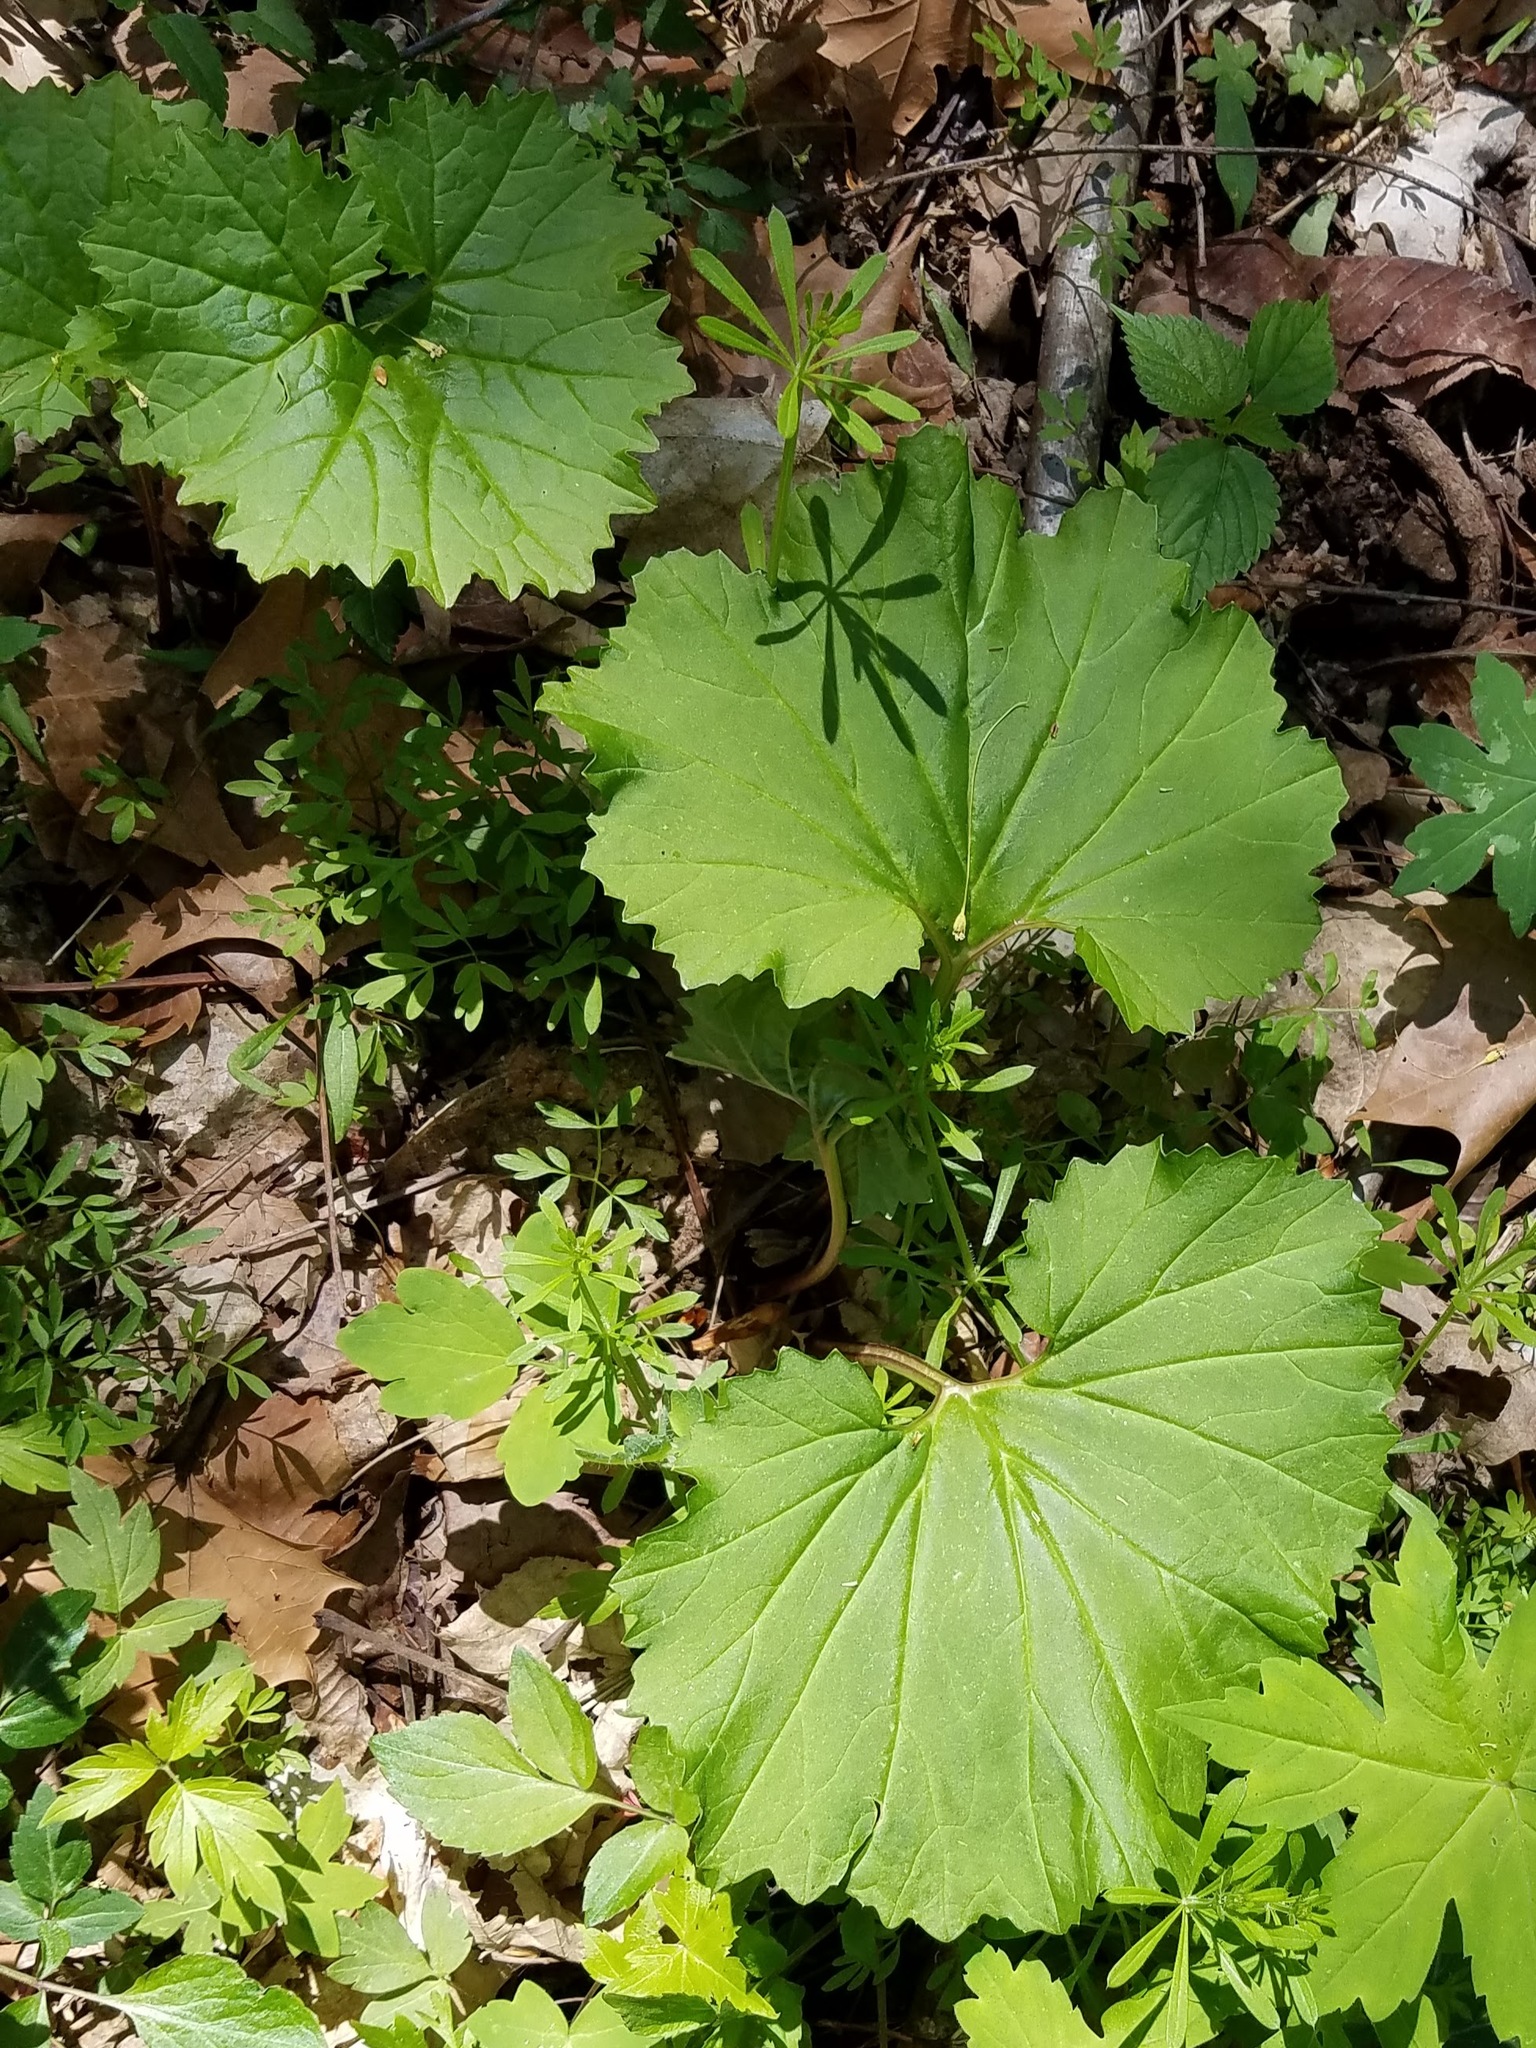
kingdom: Plantae
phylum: Tracheophyta
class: Magnoliopsida
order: Asterales
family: Asteraceae
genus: Arnoglossum
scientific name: Arnoglossum reniforme
